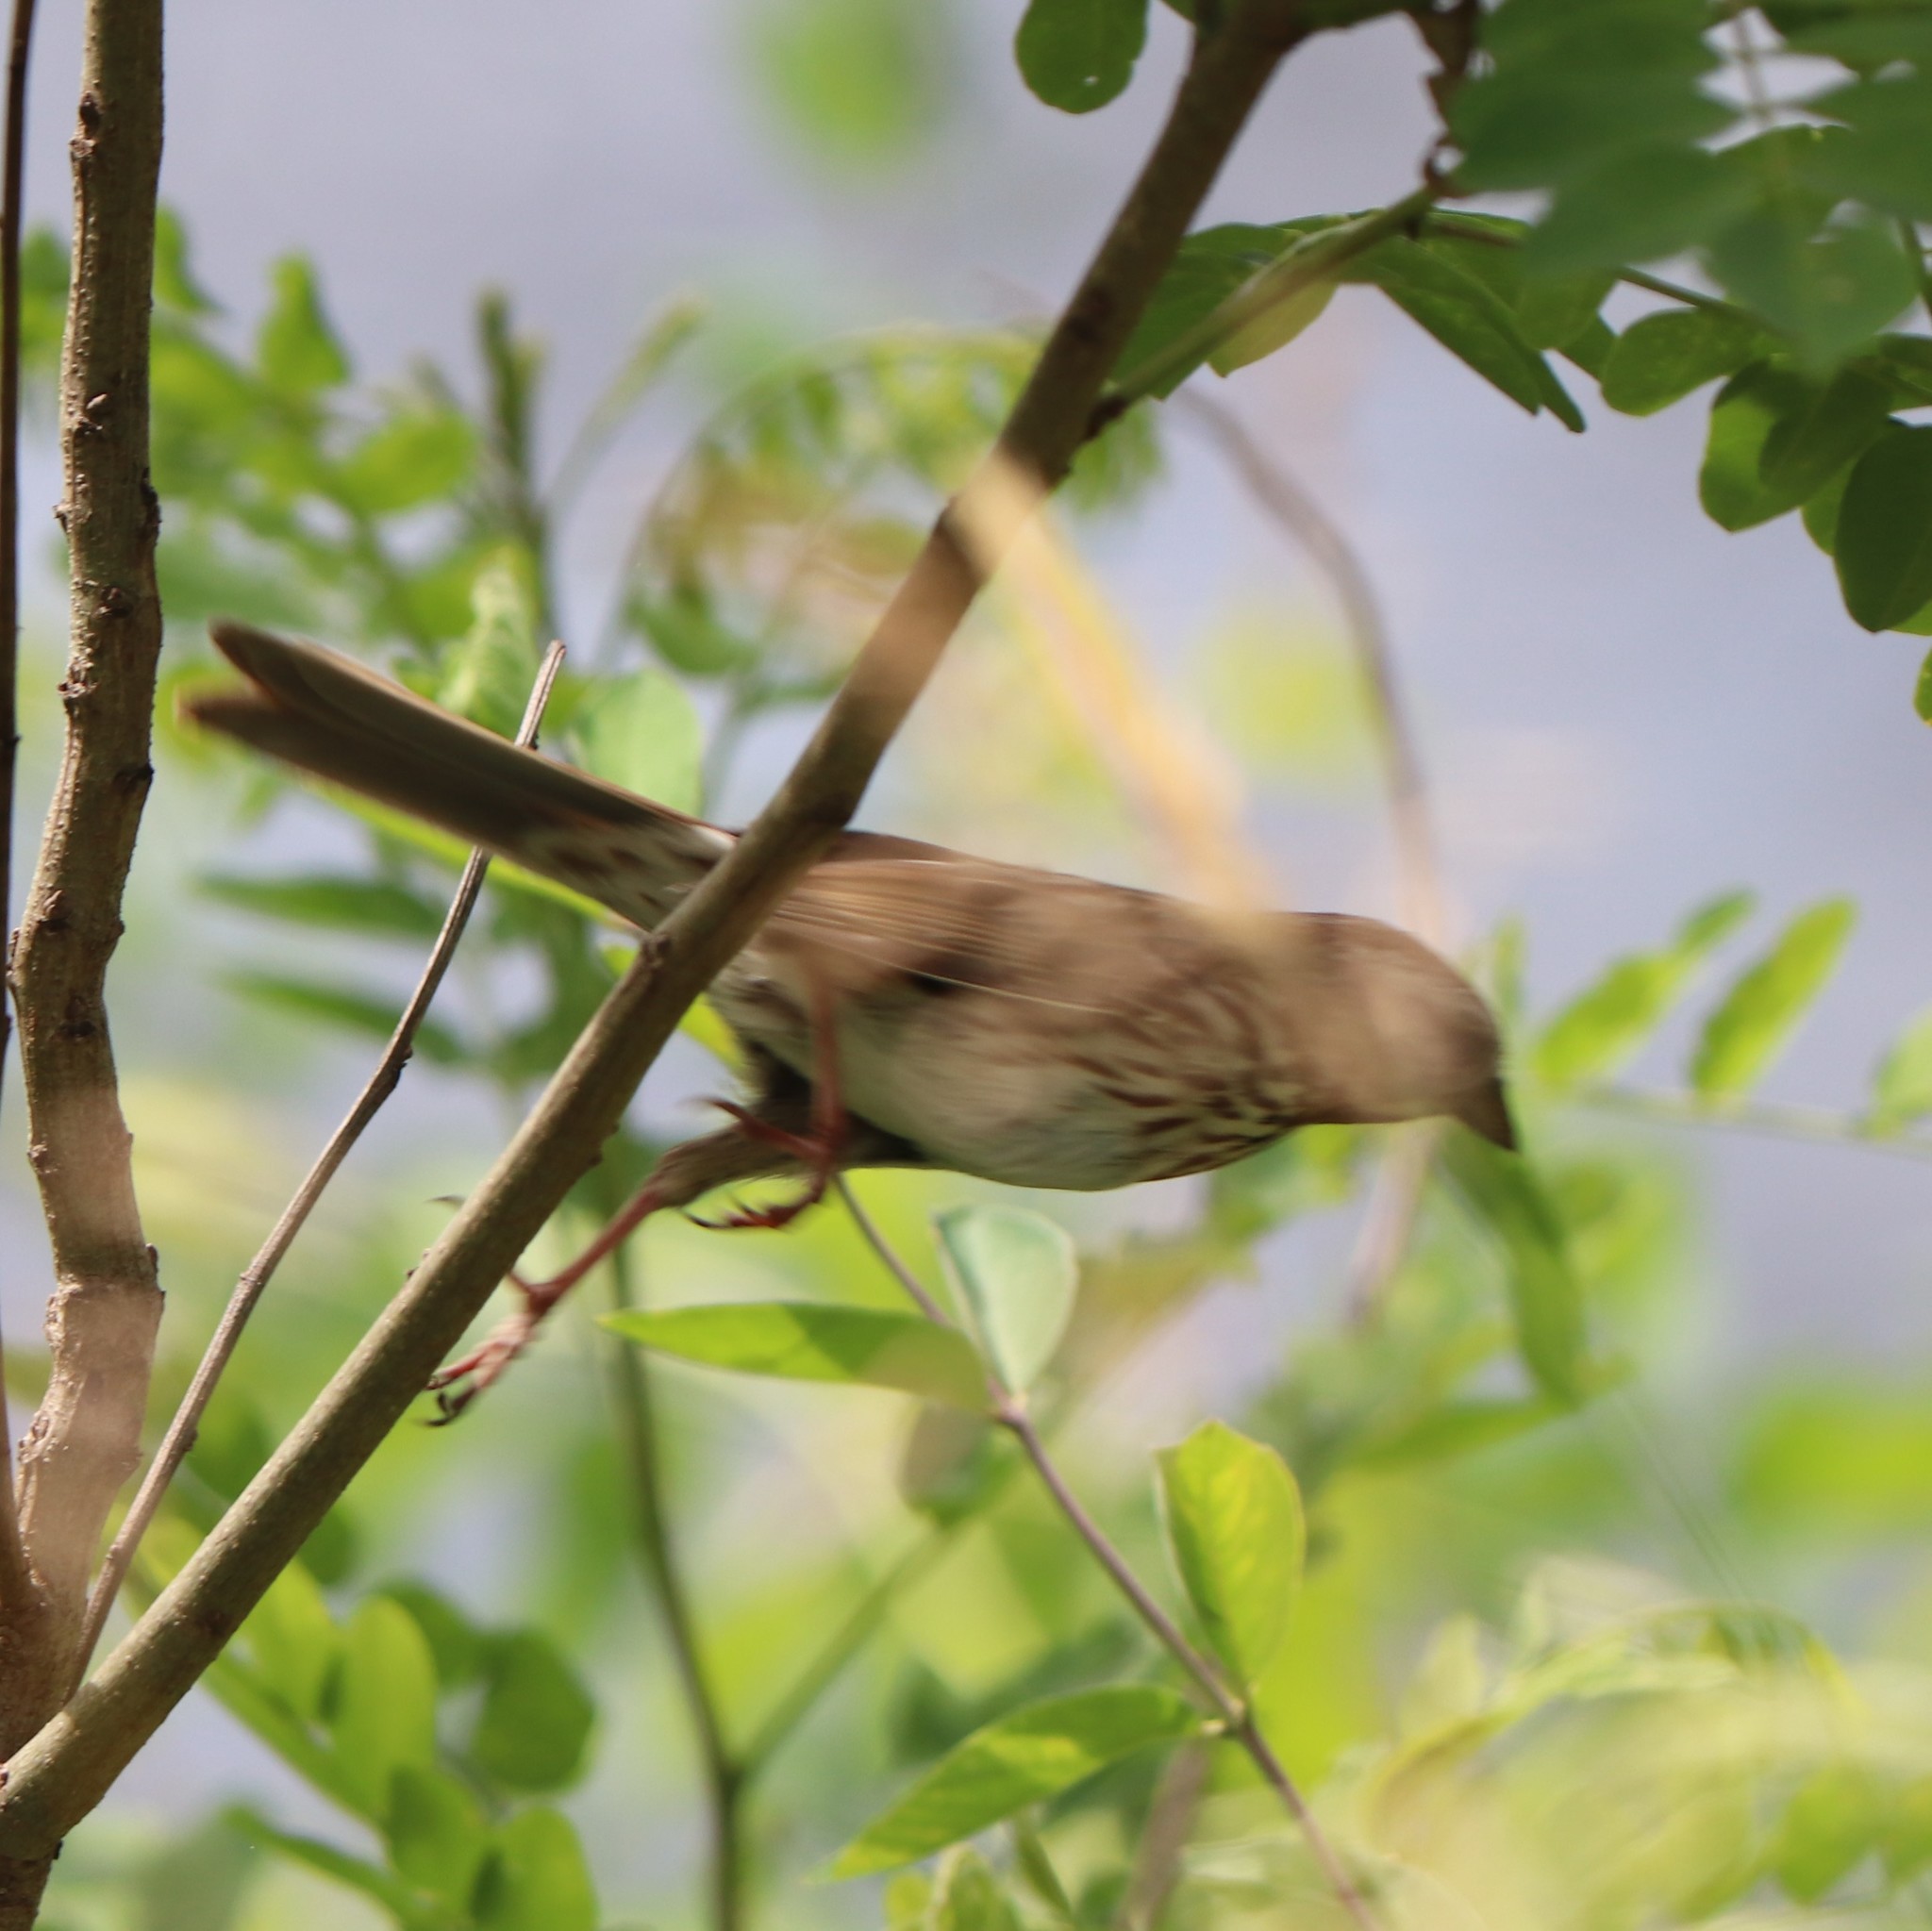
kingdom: Animalia
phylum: Chordata
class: Aves
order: Passeriformes
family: Passerellidae
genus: Melospiza
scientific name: Melospiza melodia
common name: Song sparrow
